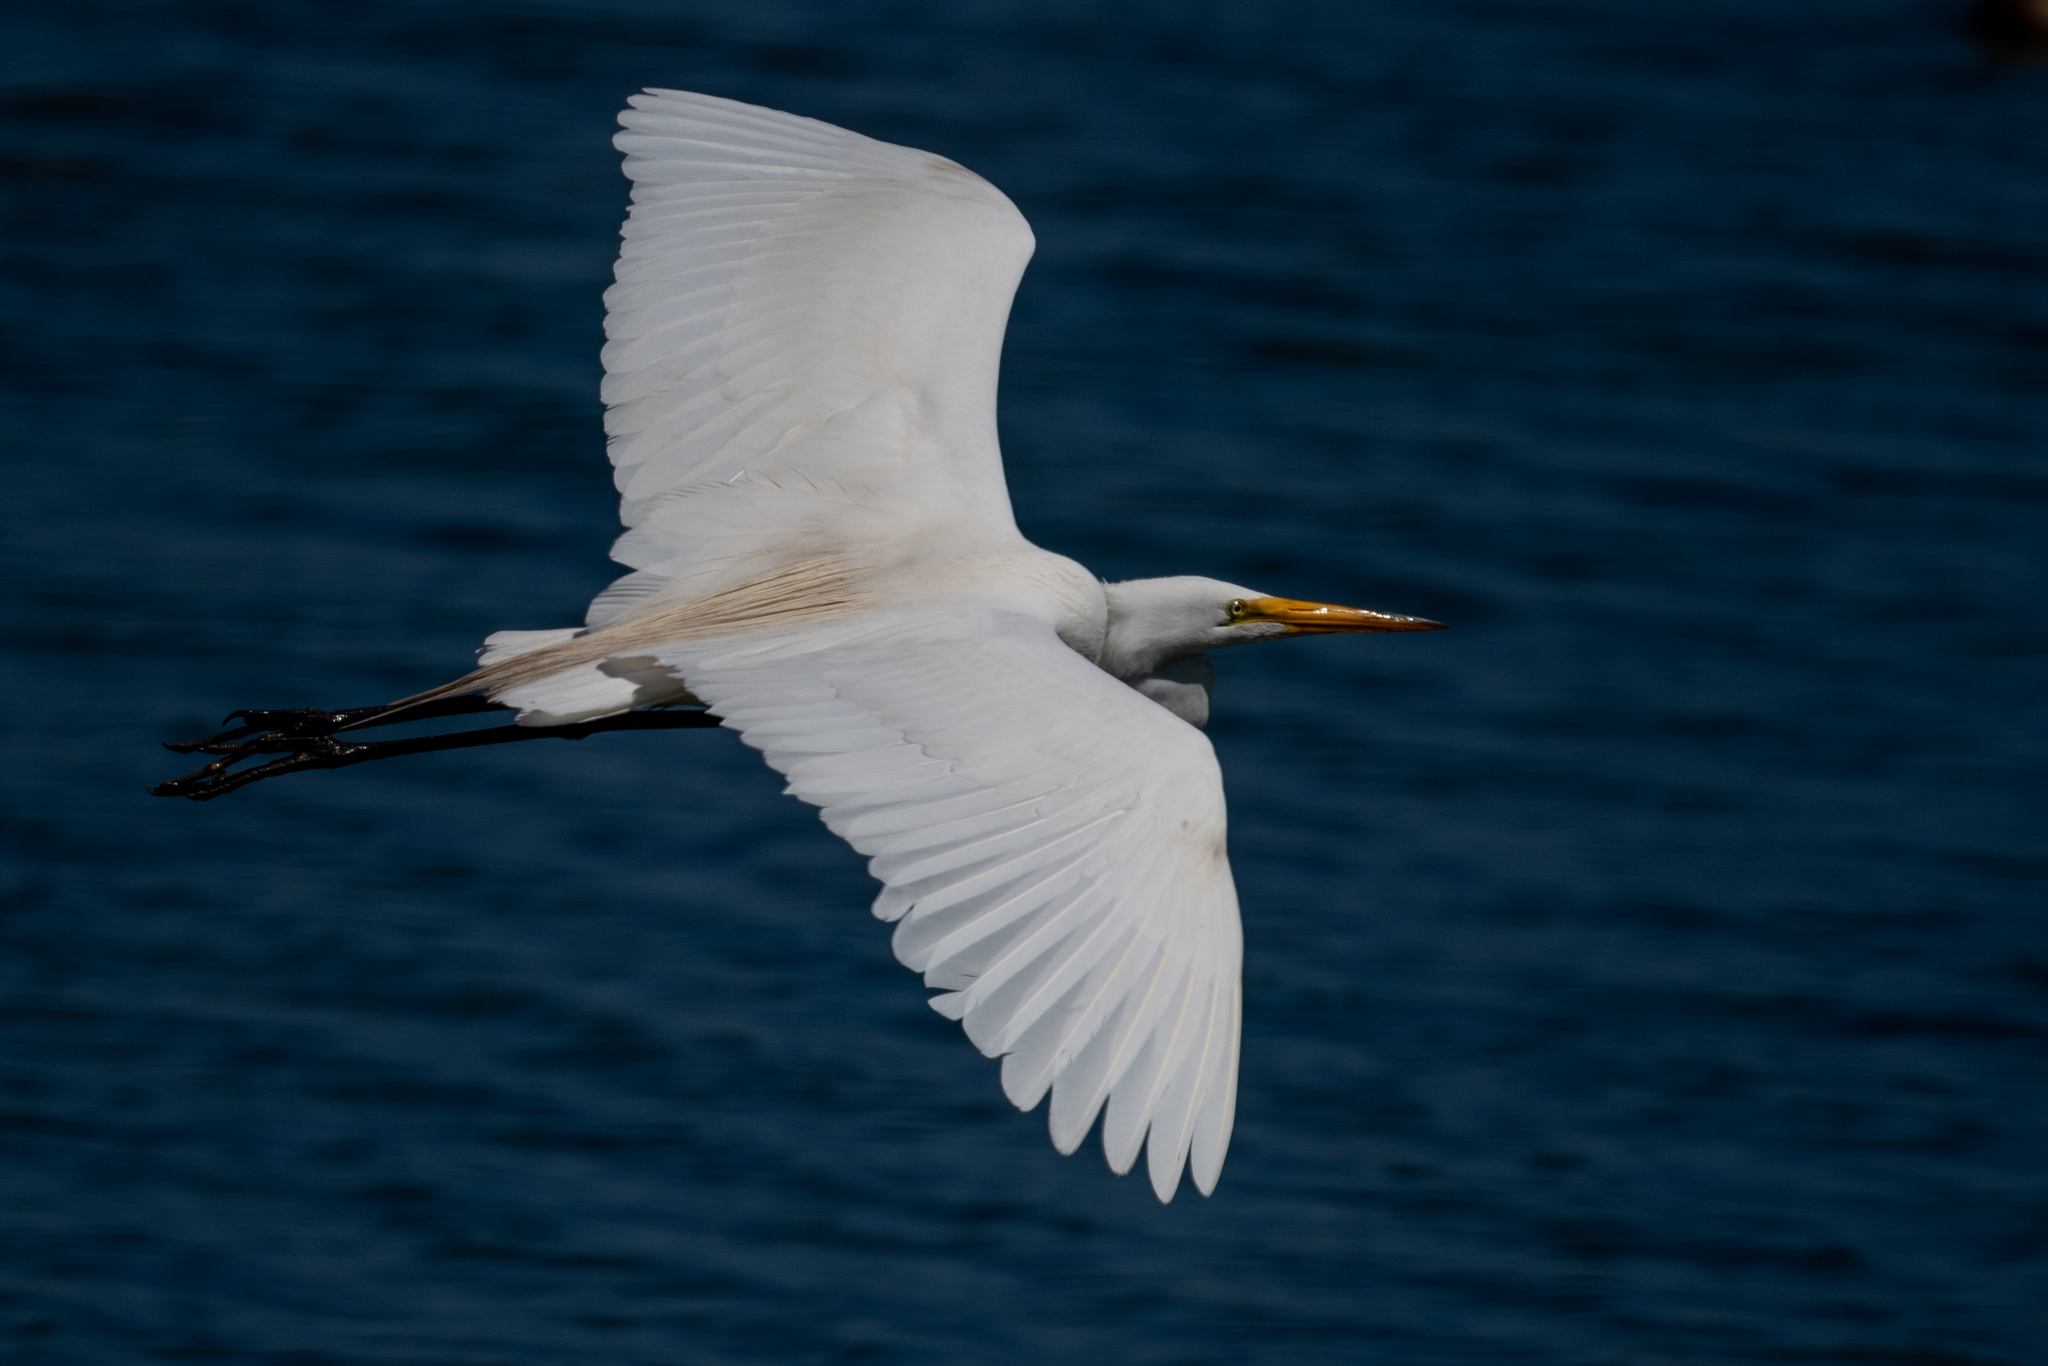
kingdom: Animalia
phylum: Chordata
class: Aves
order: Pelecaniformes
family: Ardeidae
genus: Ardea
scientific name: Ardea alba
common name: Great egret
